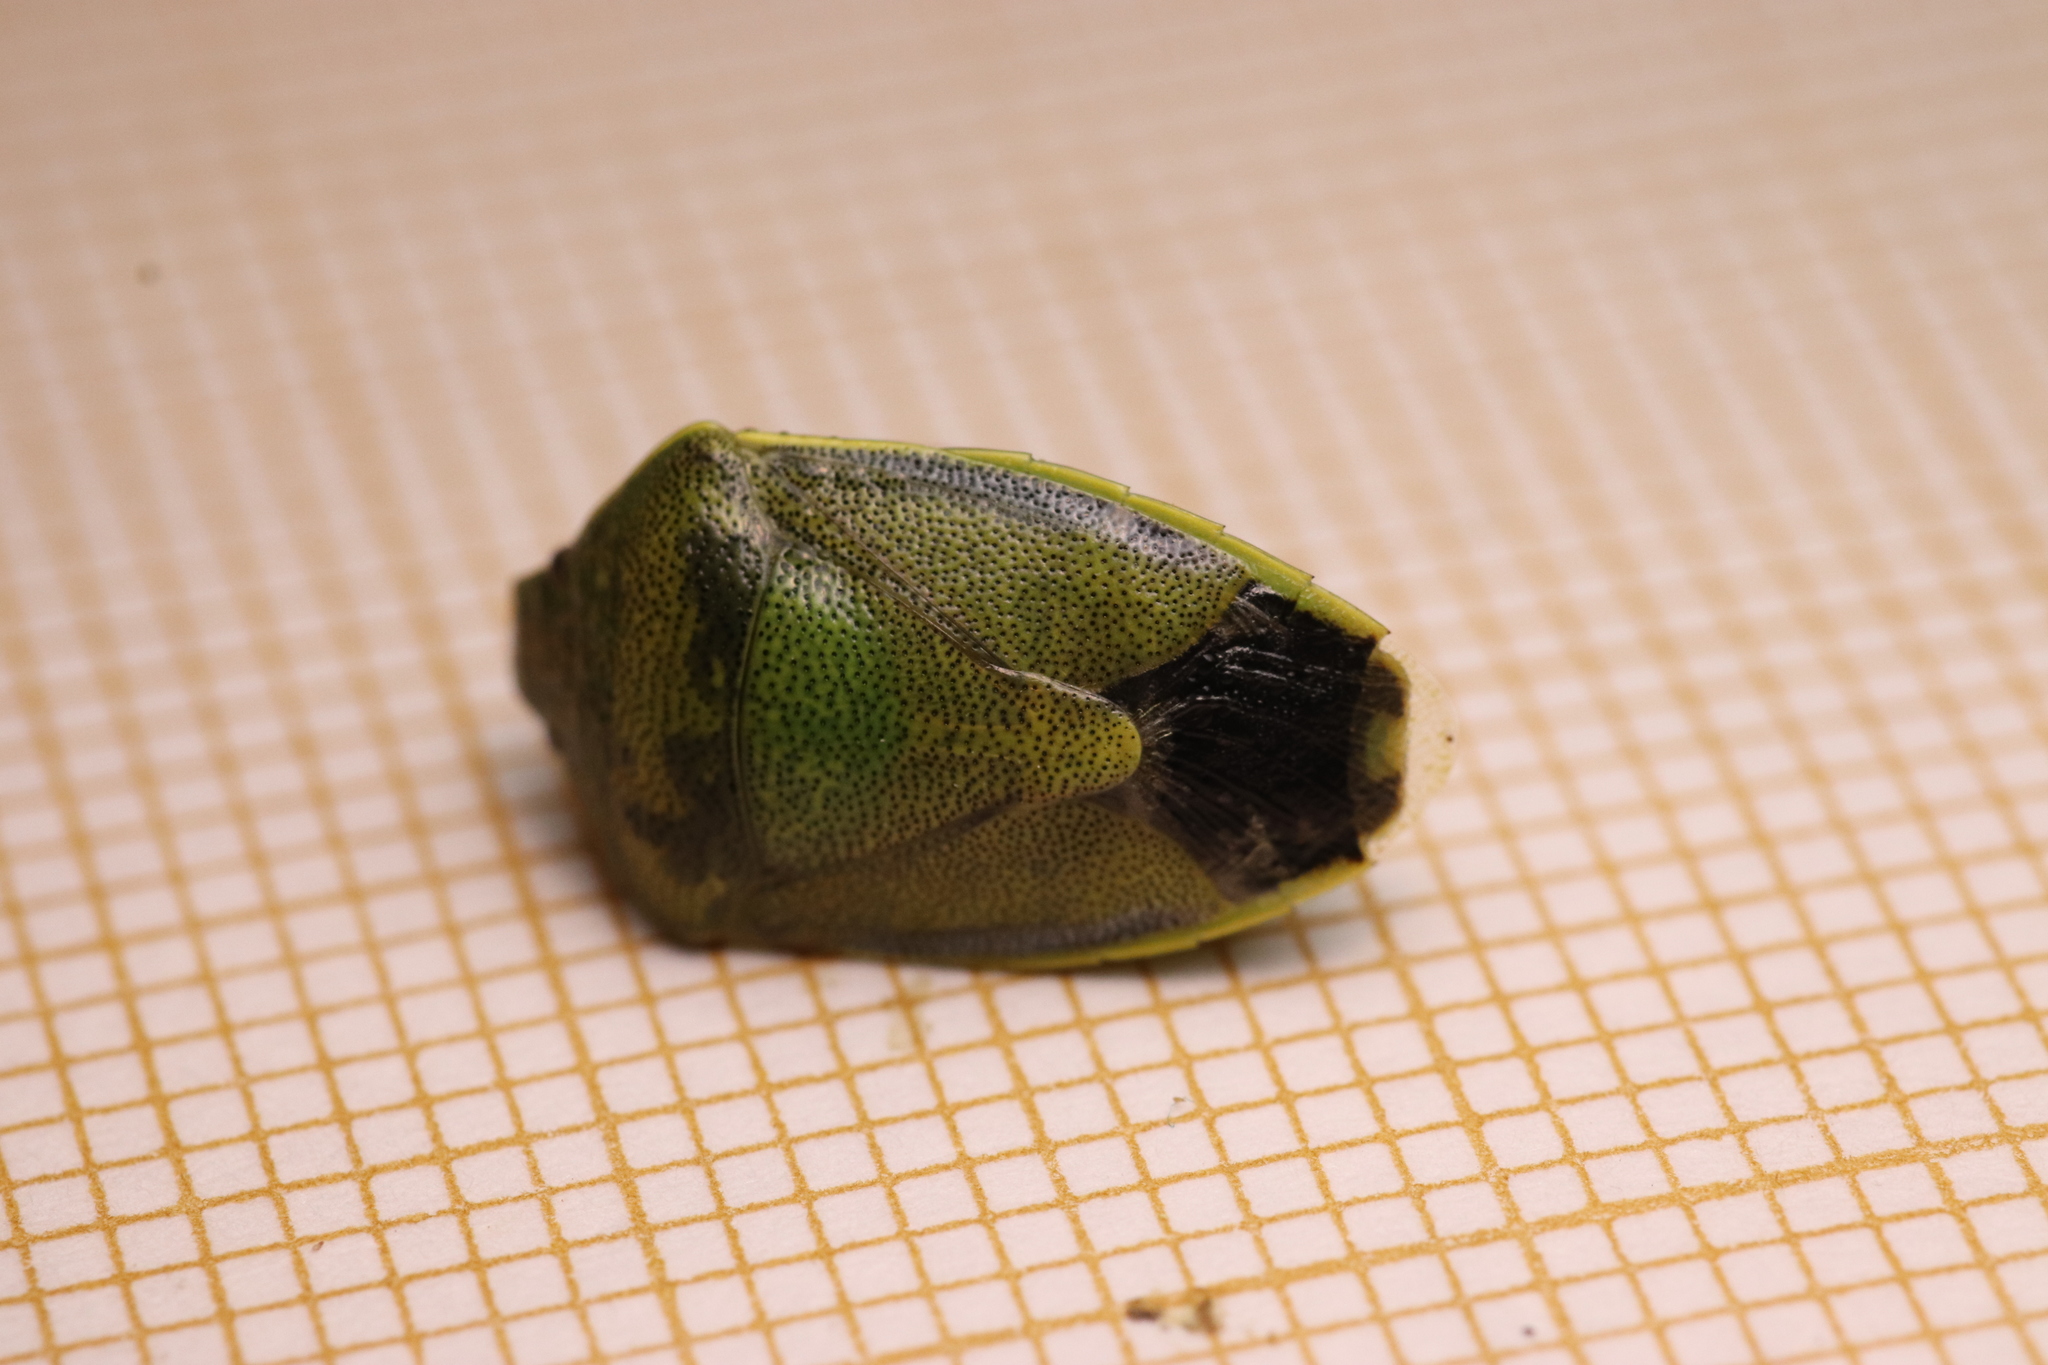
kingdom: Animalia
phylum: Arthropoda
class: Insecta
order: Hemiptera
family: Pentatomidae
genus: Piezodorus
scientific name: Piezodorus lituratus
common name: Stink bug
